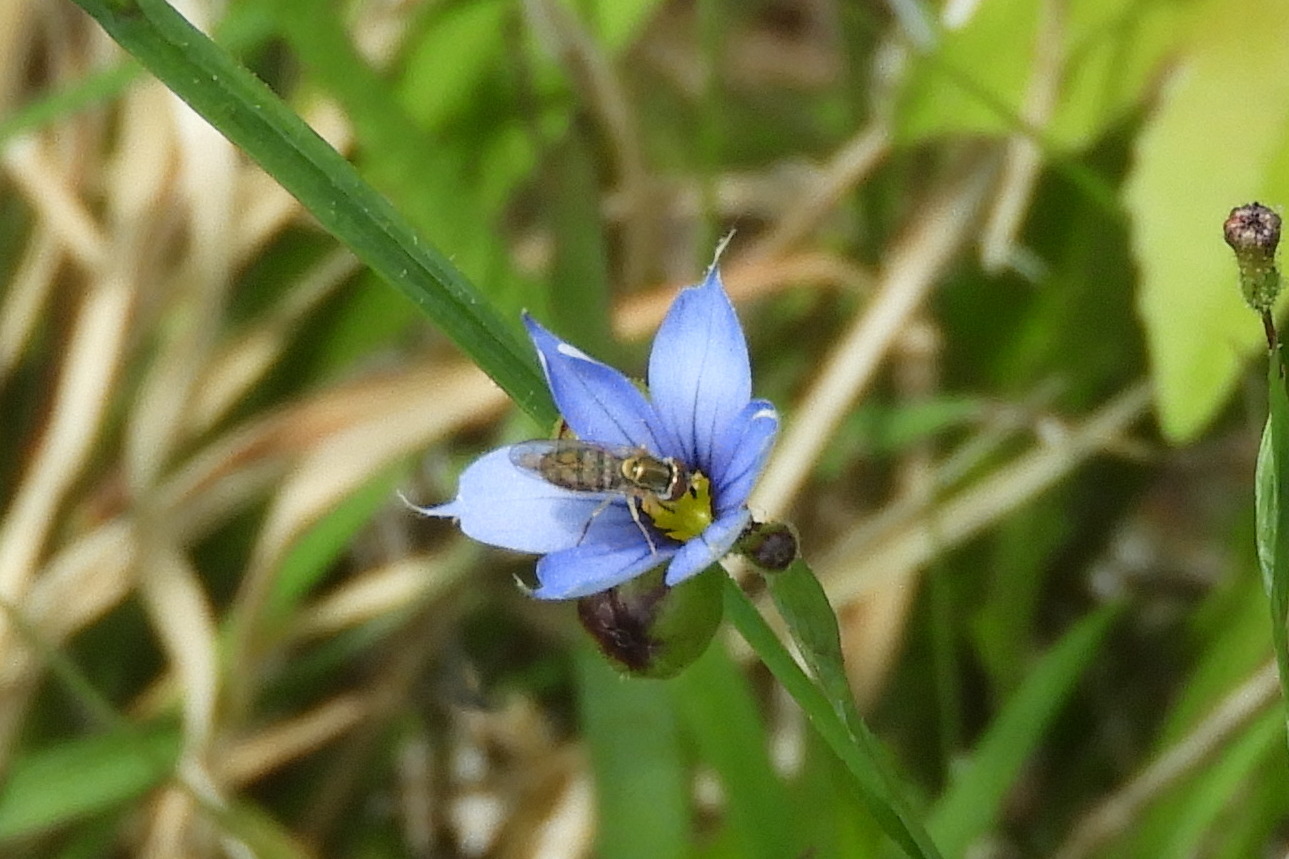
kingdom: Animalia
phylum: Arthropoda
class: Insecta
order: Diptera
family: Syrphidae
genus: Toxomerus
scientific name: Toxomerus marginatus
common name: Syrphid fly
